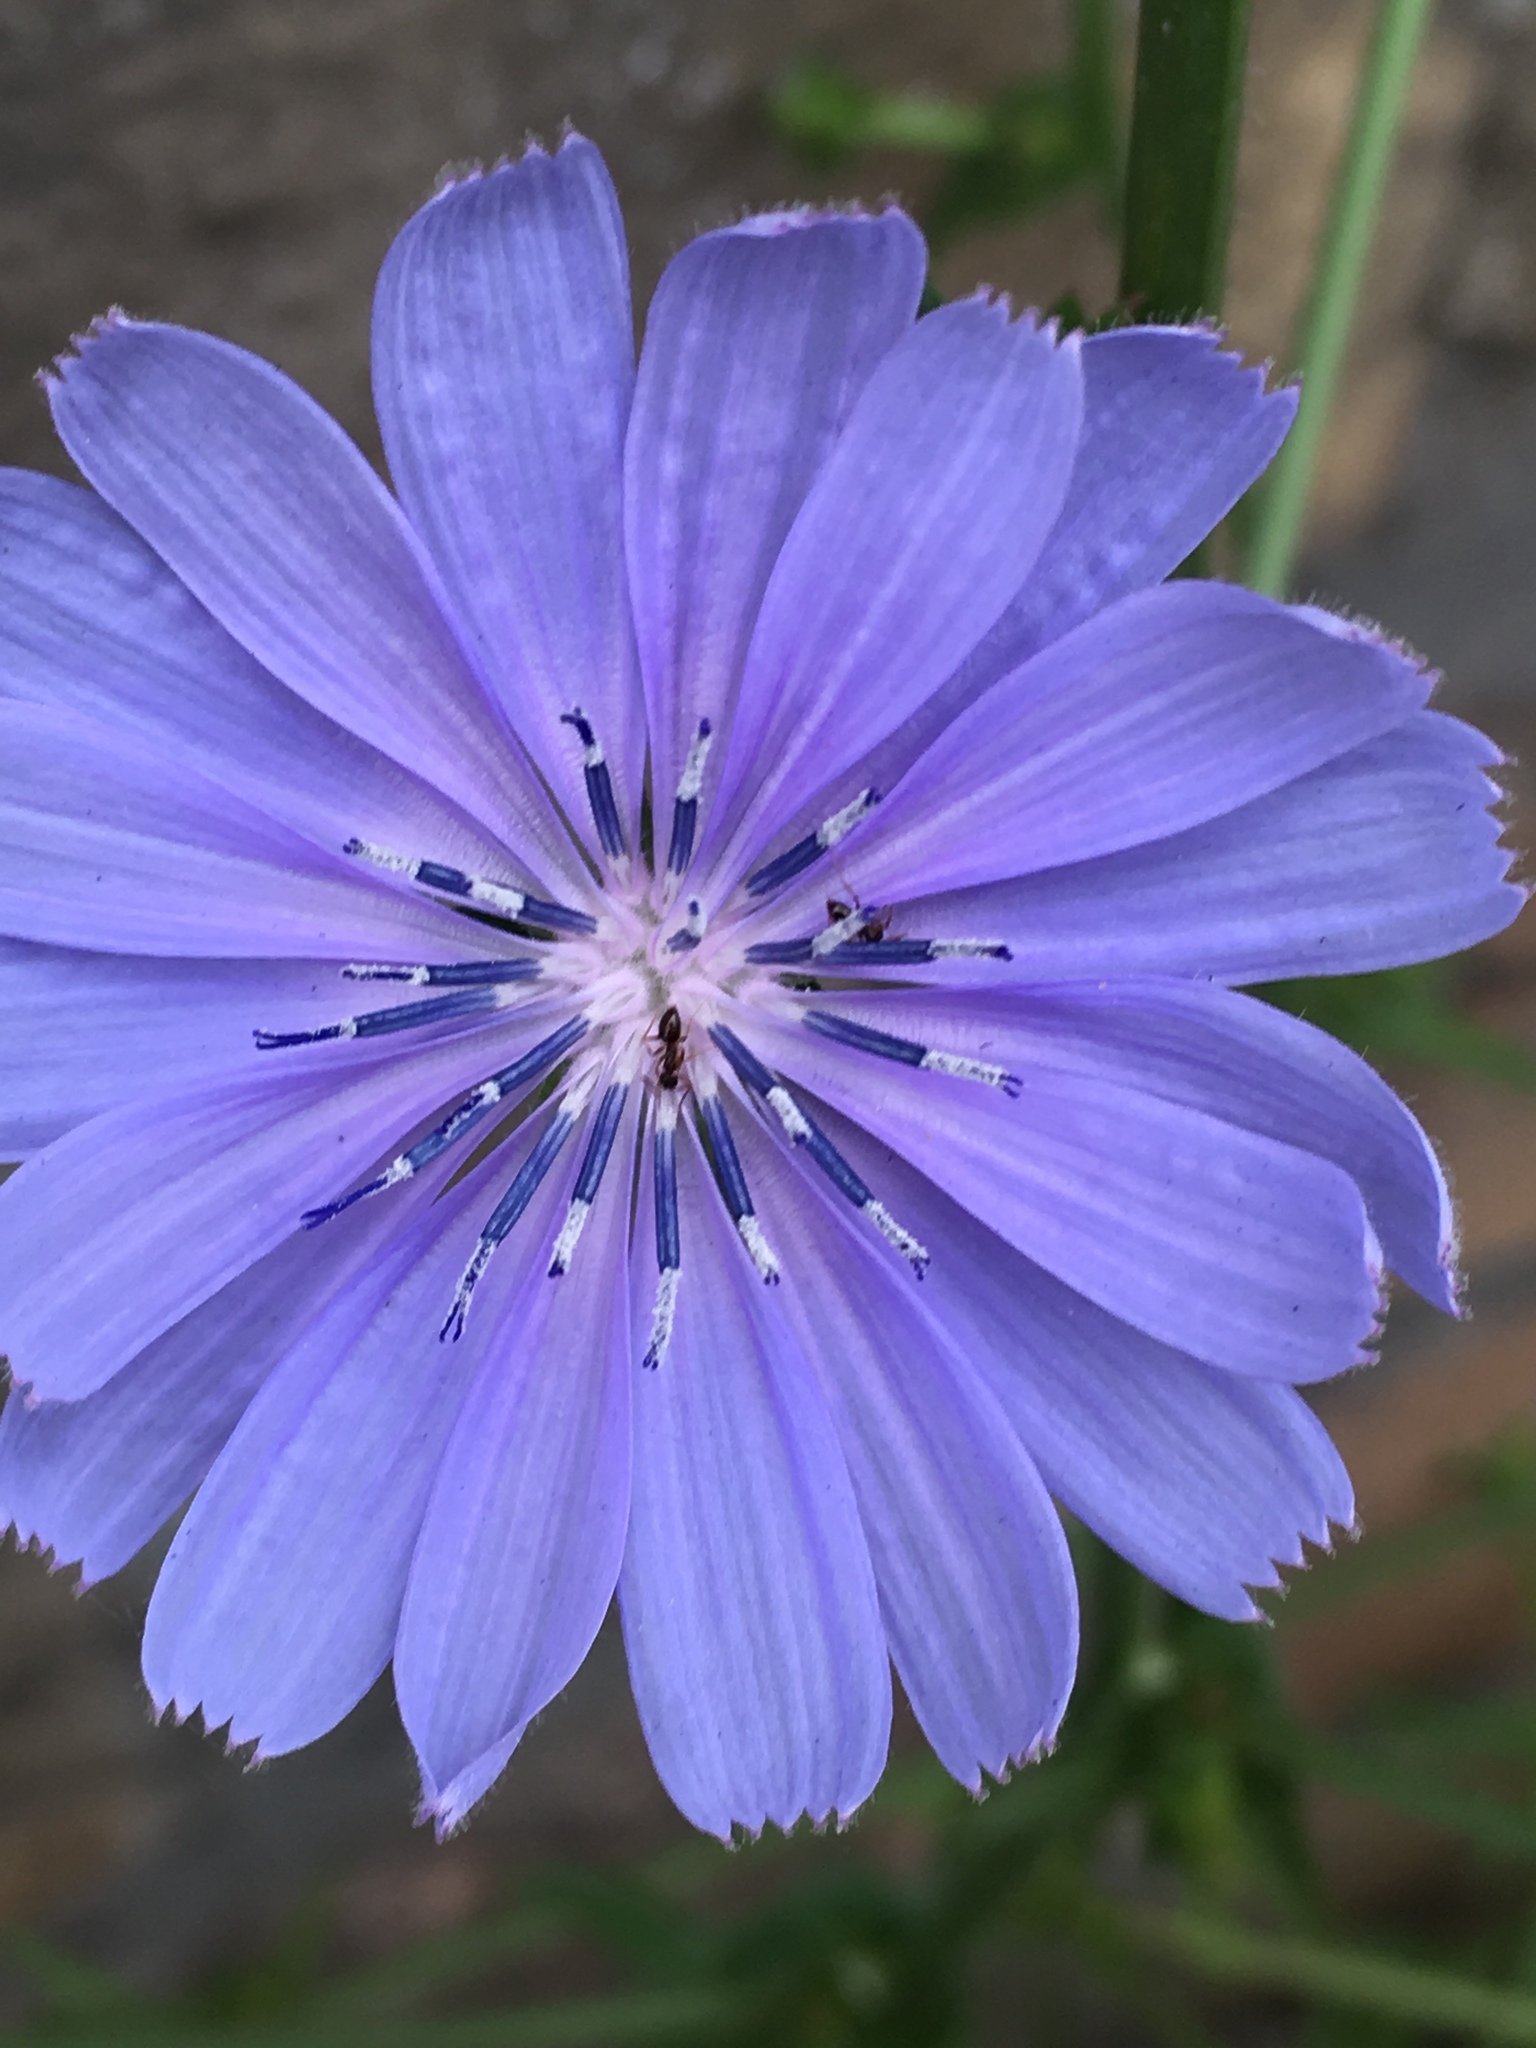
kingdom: Plantae
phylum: Tracheophyta
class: Magnoliopsida
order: Asterales
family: Asteraceae
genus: Cichorium
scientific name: Cichorium intybus
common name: Chicory
